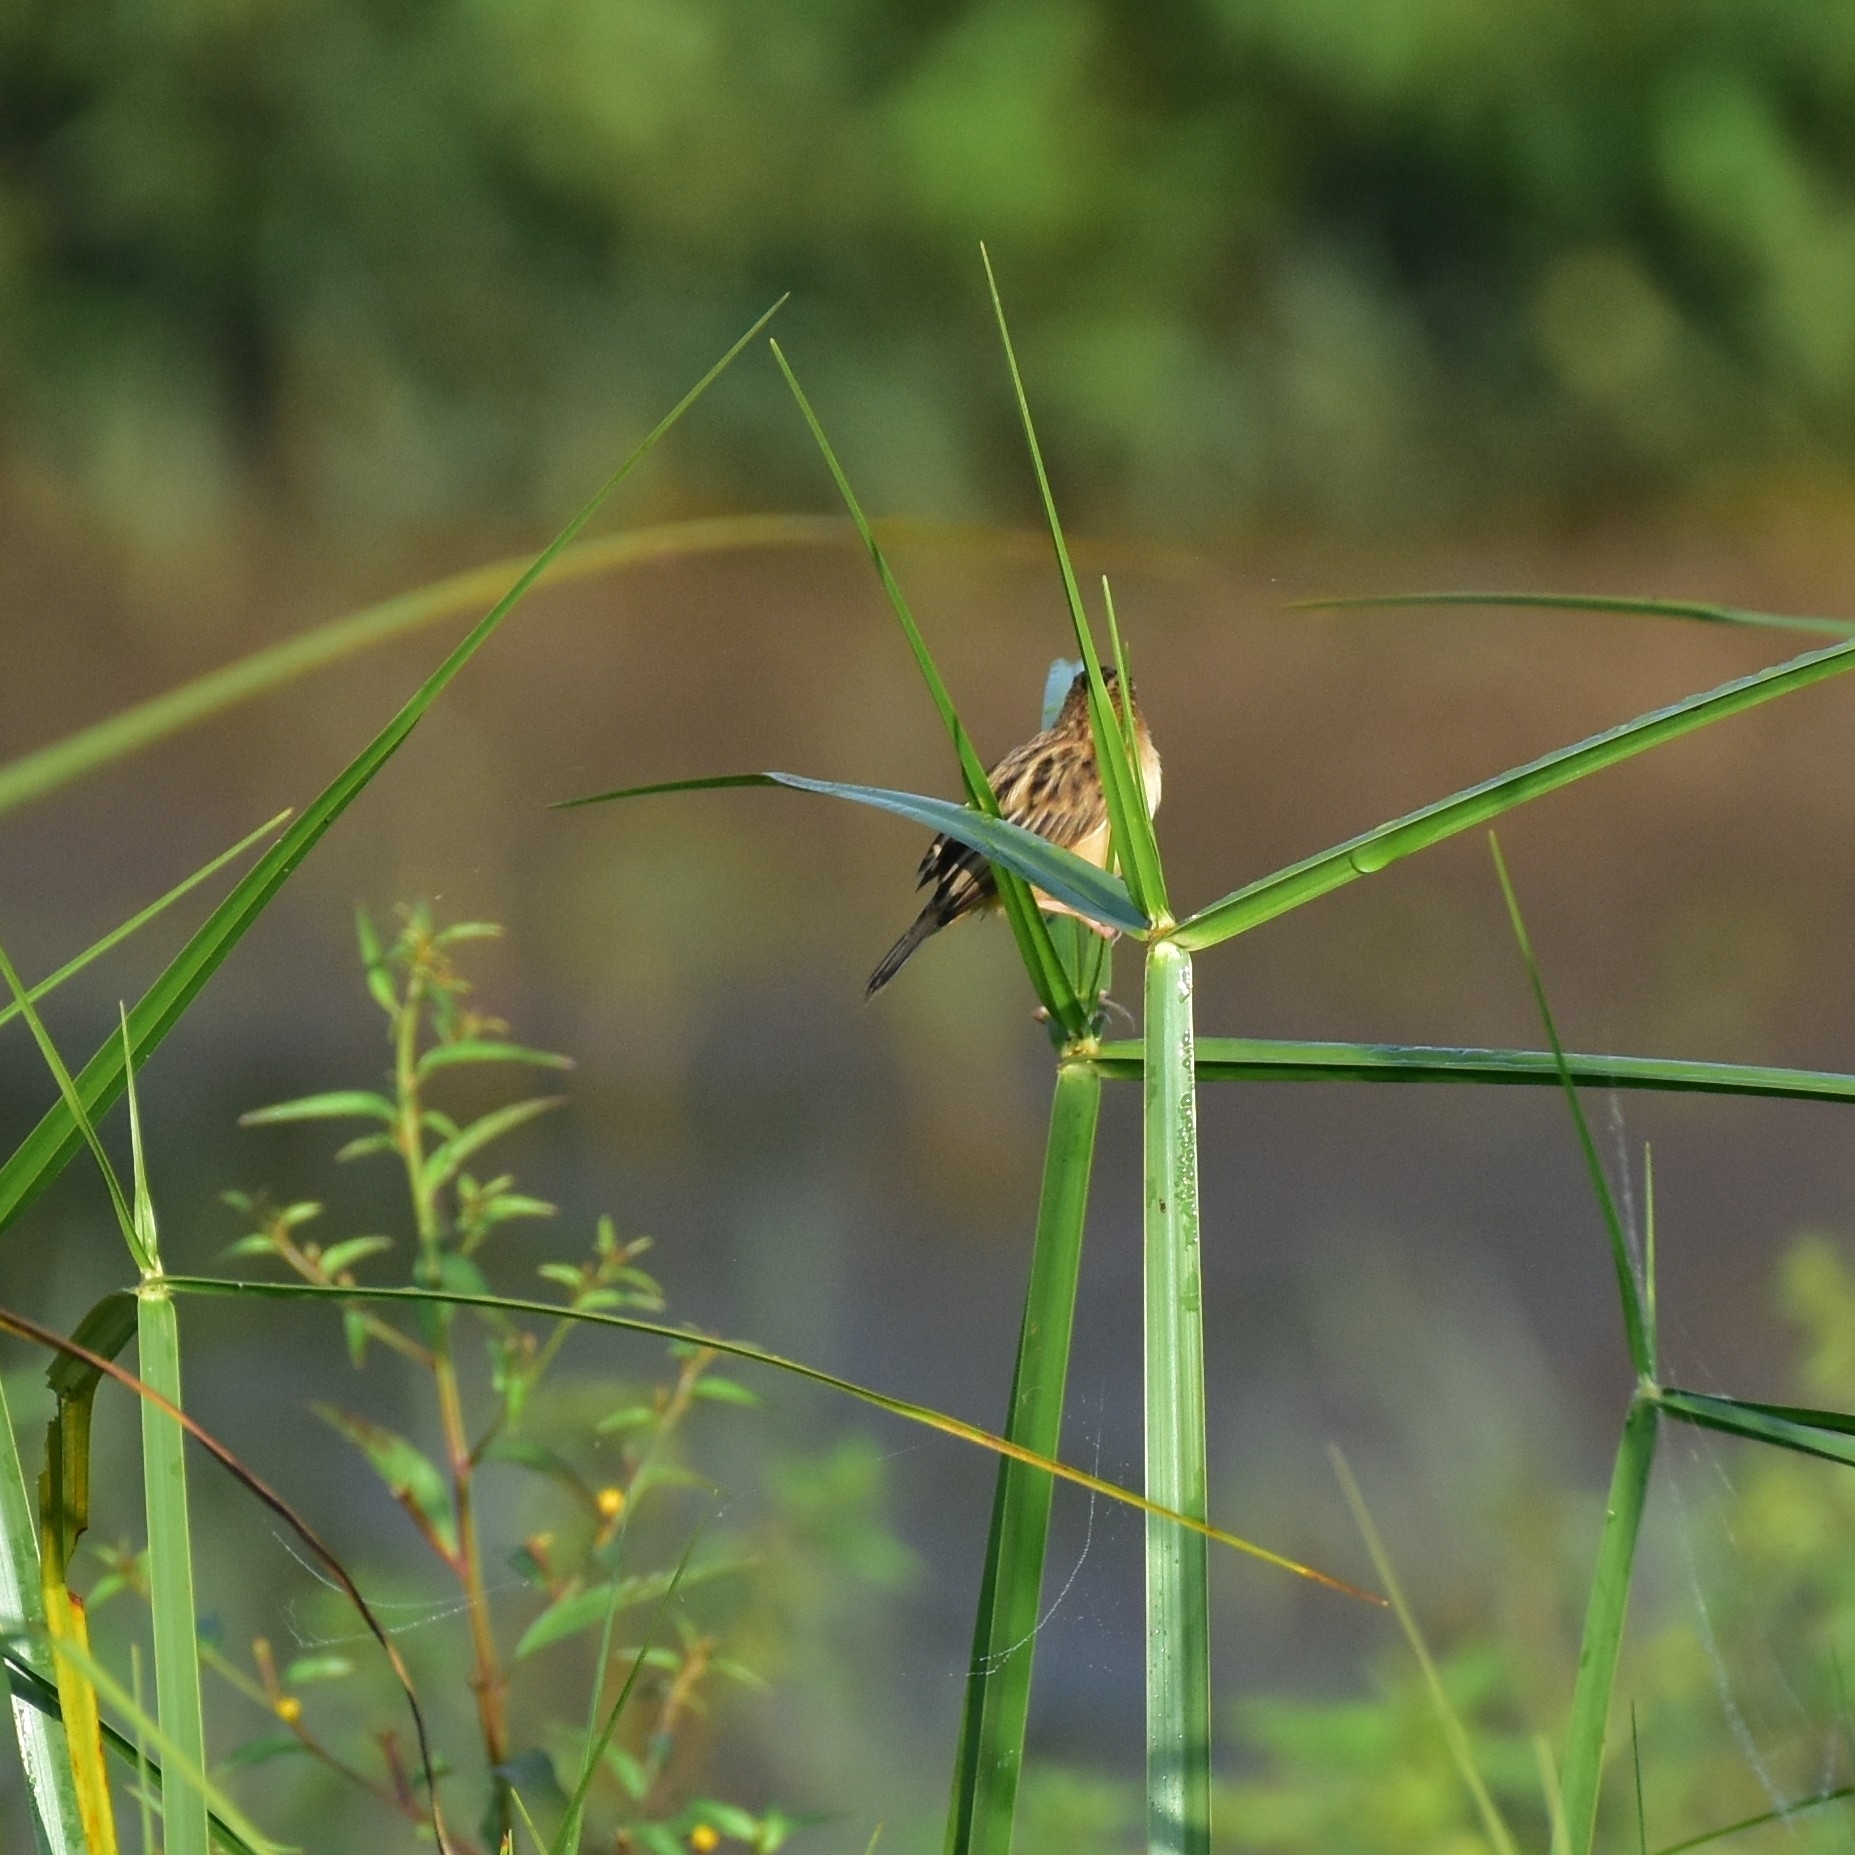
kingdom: Animalia
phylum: Chordata
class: Aves
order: Passeriformes
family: Cisticolidae
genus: Cisticola
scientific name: Cisticola juncidis
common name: Zitting cisticola
